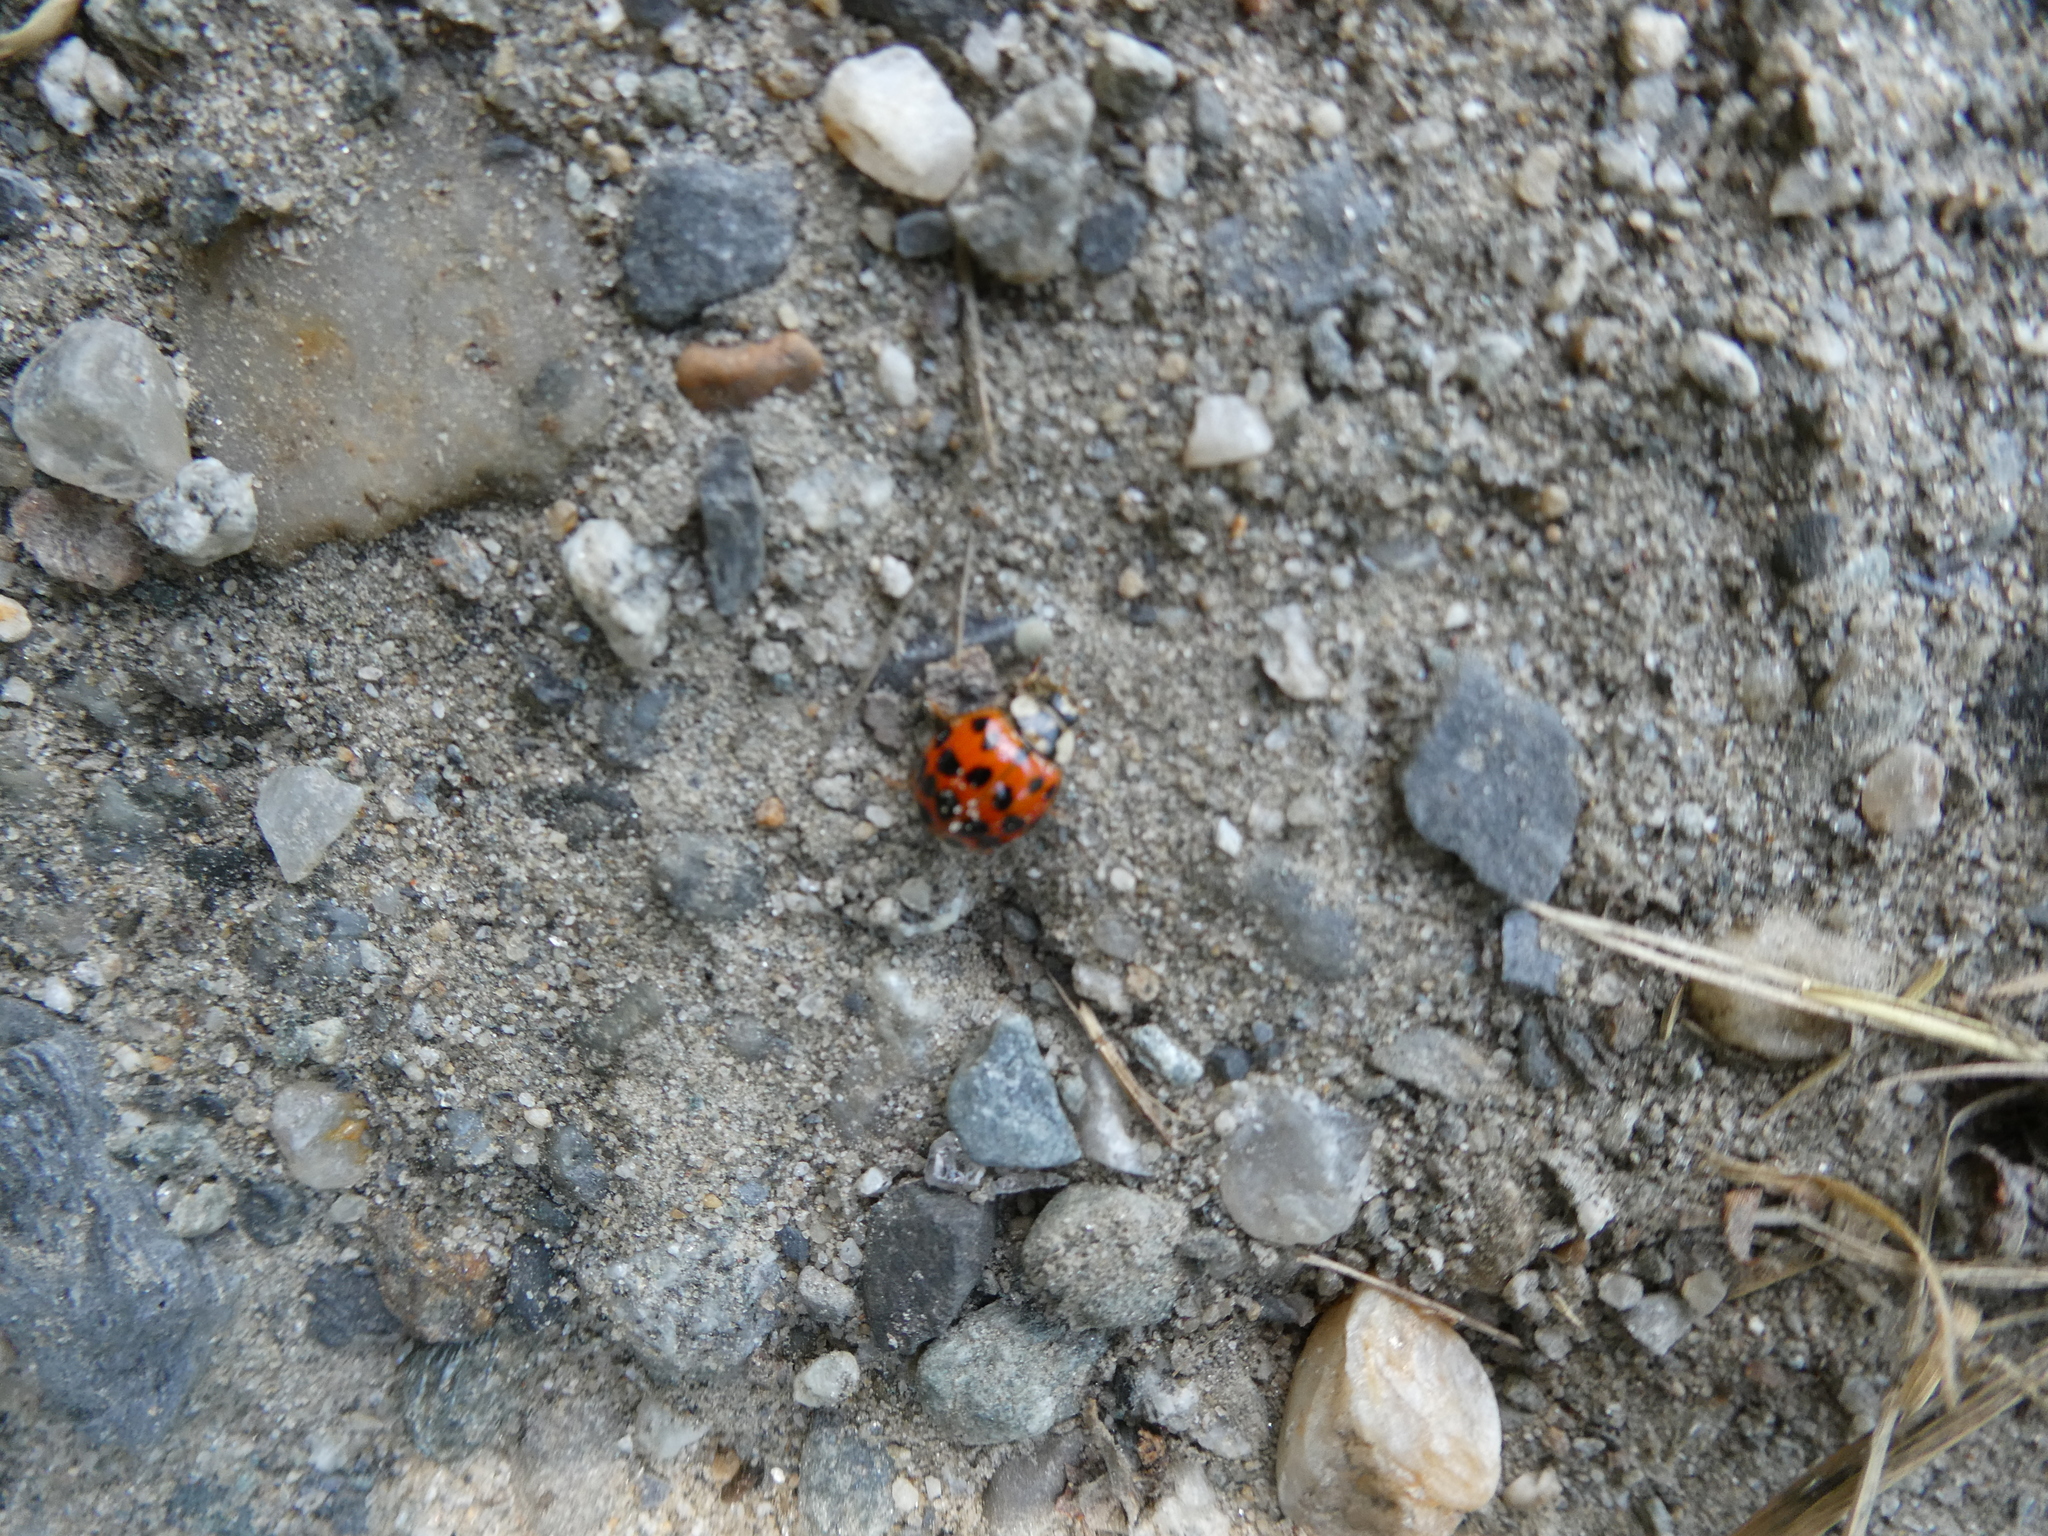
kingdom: Animalia
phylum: Arthropoda
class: Insecta
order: Coleoptera
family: Coccinellidae
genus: Harmonia
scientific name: Harmonia axyridis
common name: Harlequin ladybird
